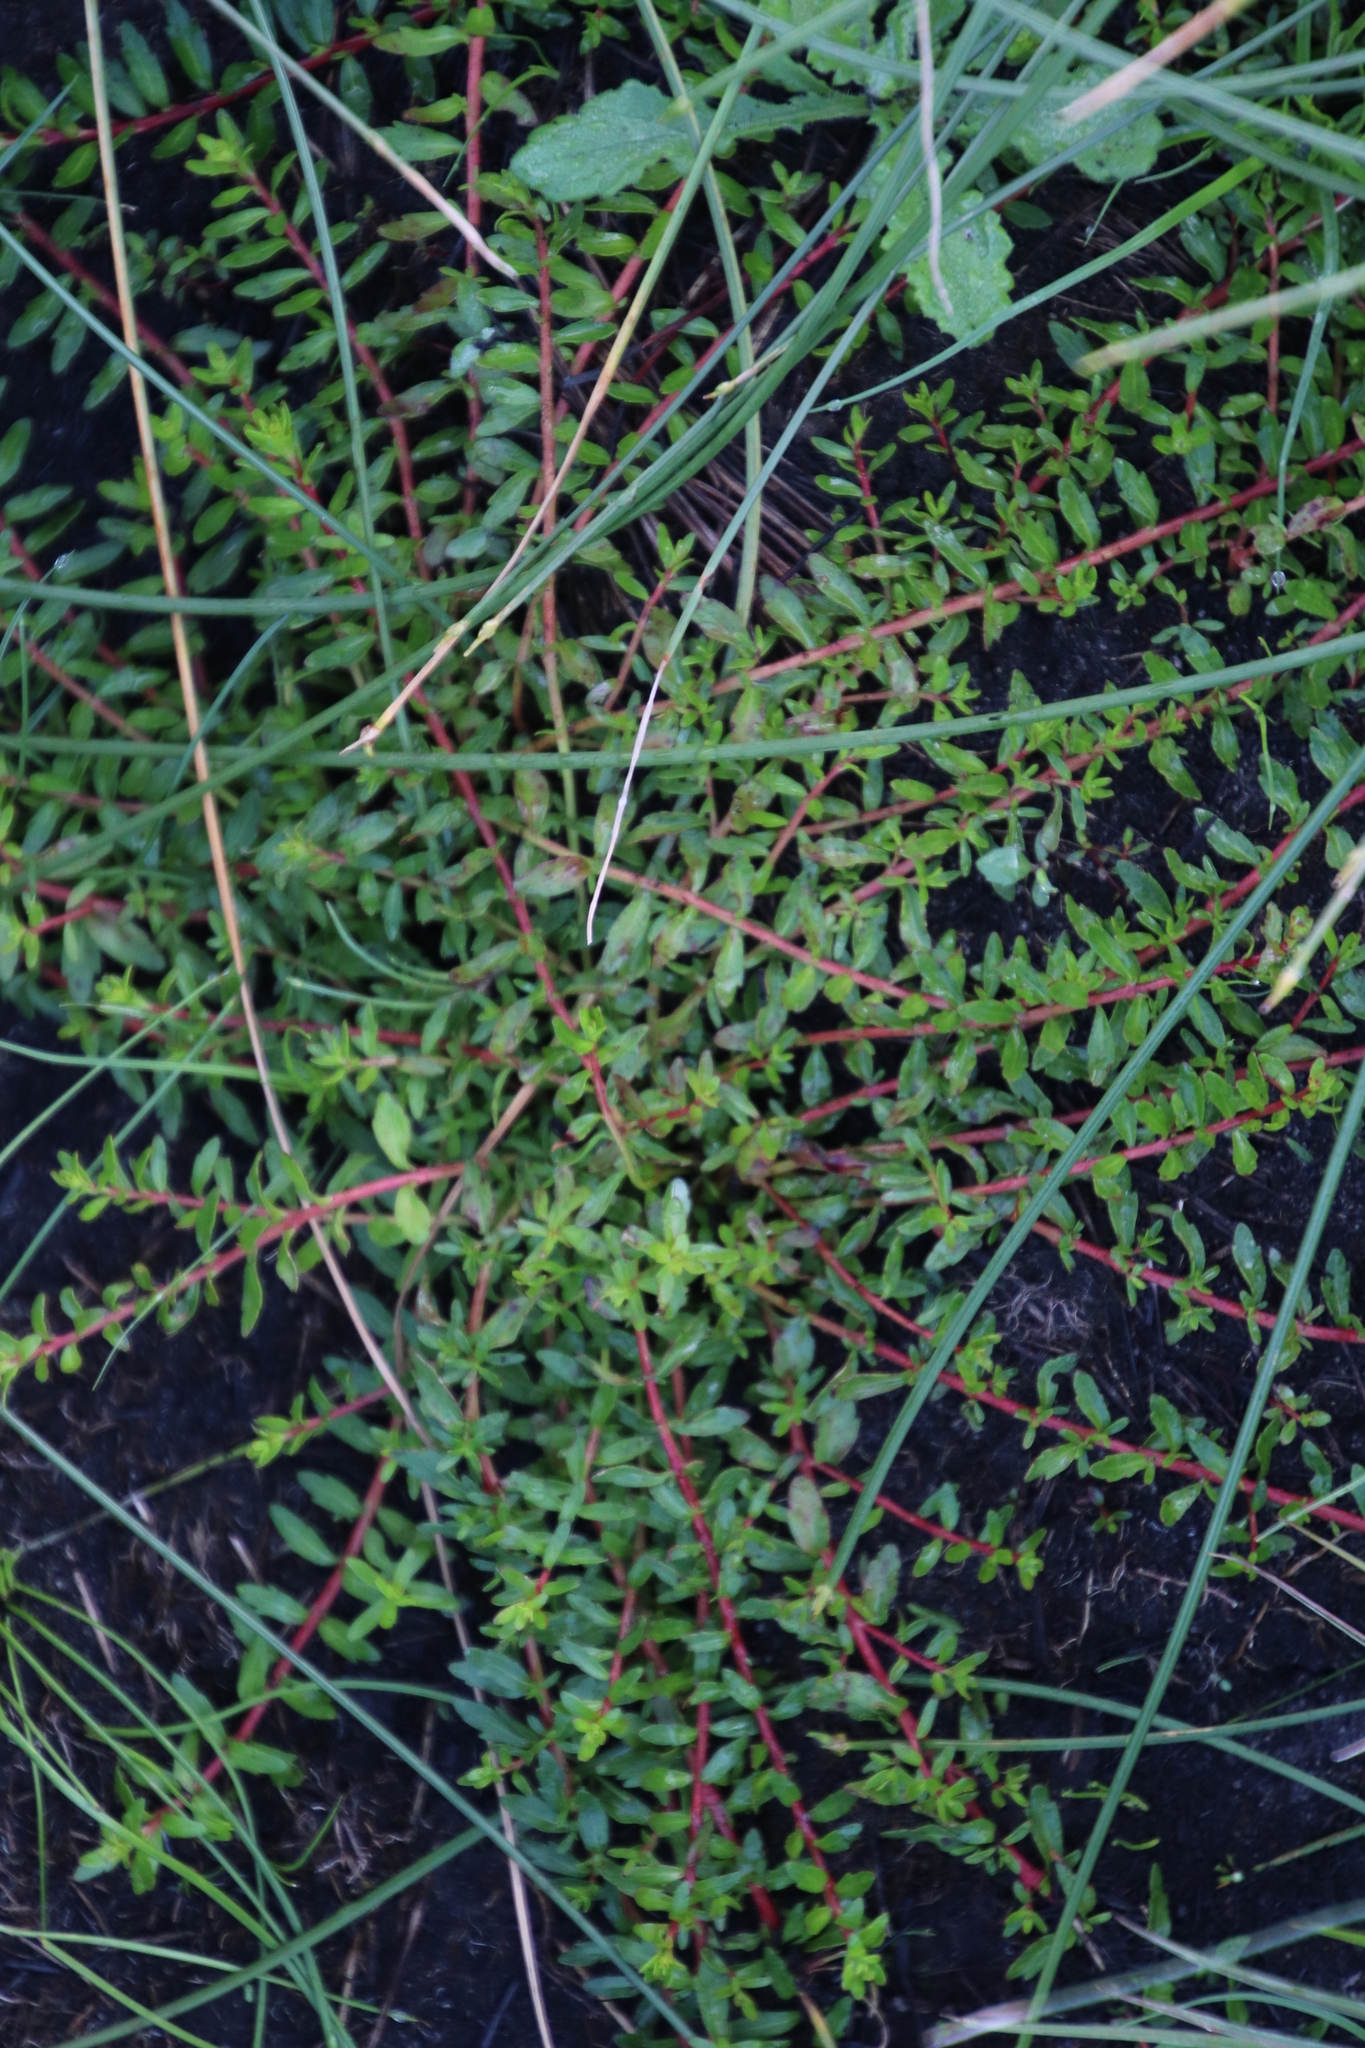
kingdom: Plantae
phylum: Tracheophyta
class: Magnoliopsida
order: Saxifragales
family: Haloragaceae
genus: Laurembergia
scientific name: Laurembergia repens
